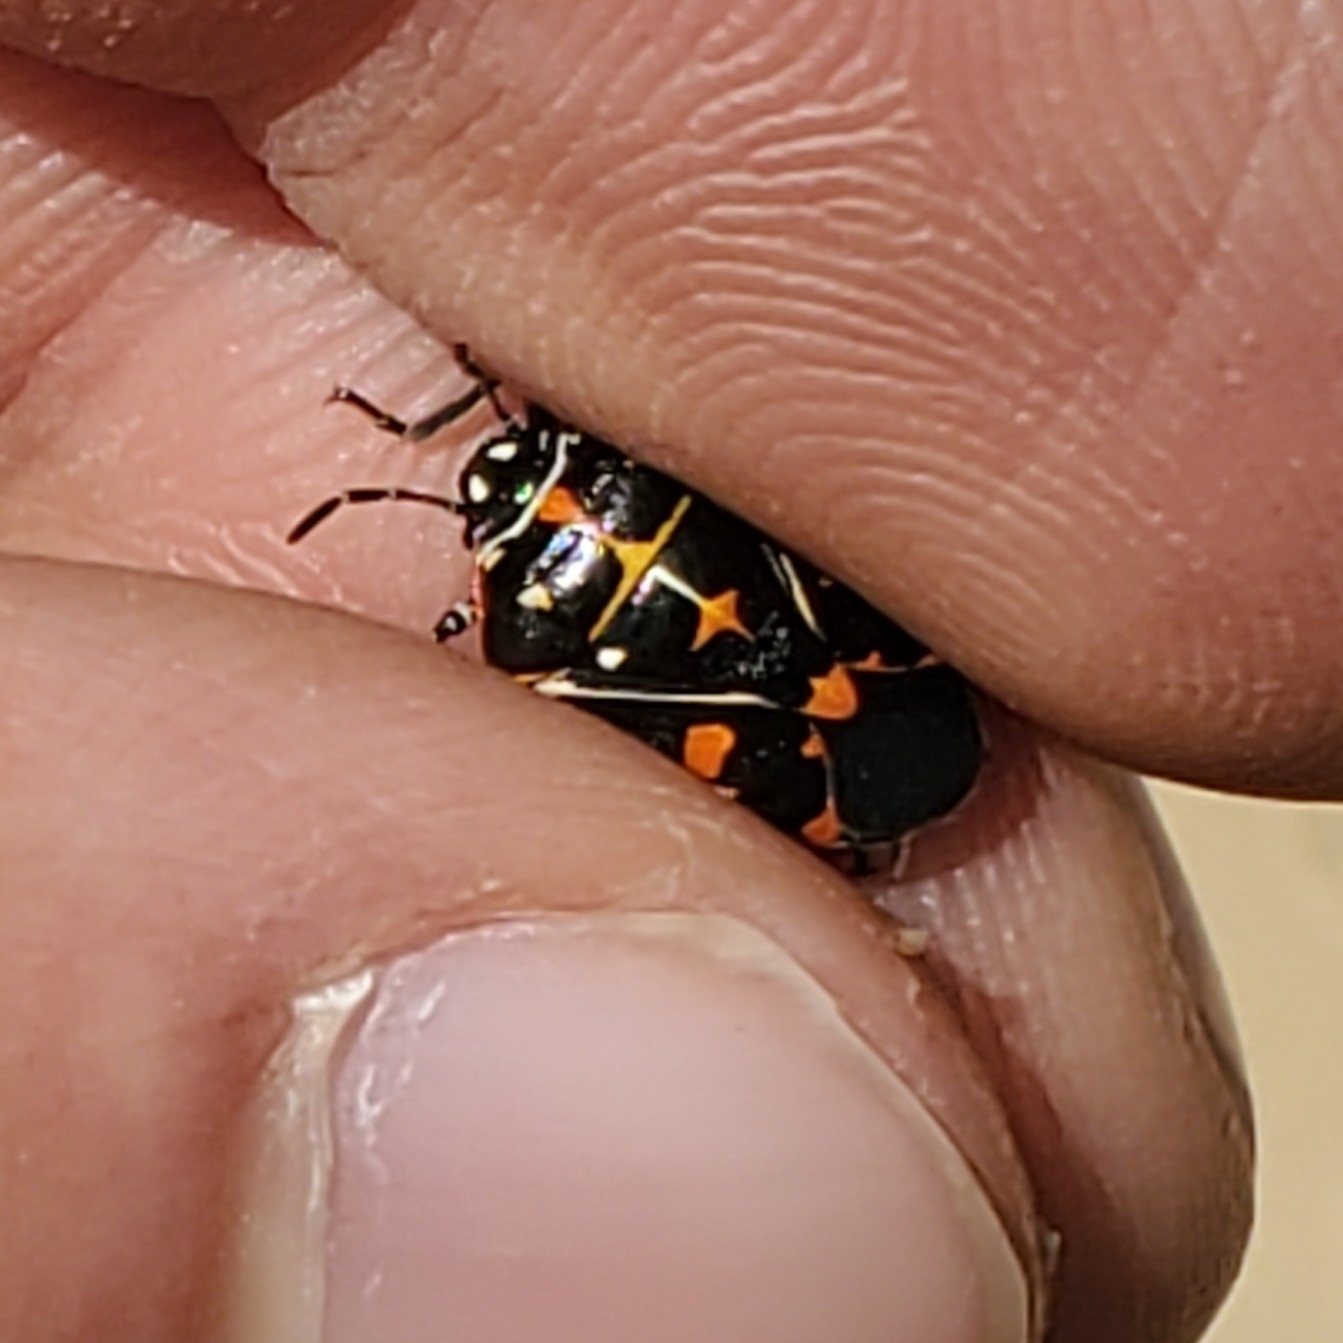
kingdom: Animalia
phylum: Arthropoda
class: Insecta
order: Hemiptera
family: Pentatomidae
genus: Murgantia
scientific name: Murgantia histrionica
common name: Harlequin bug
